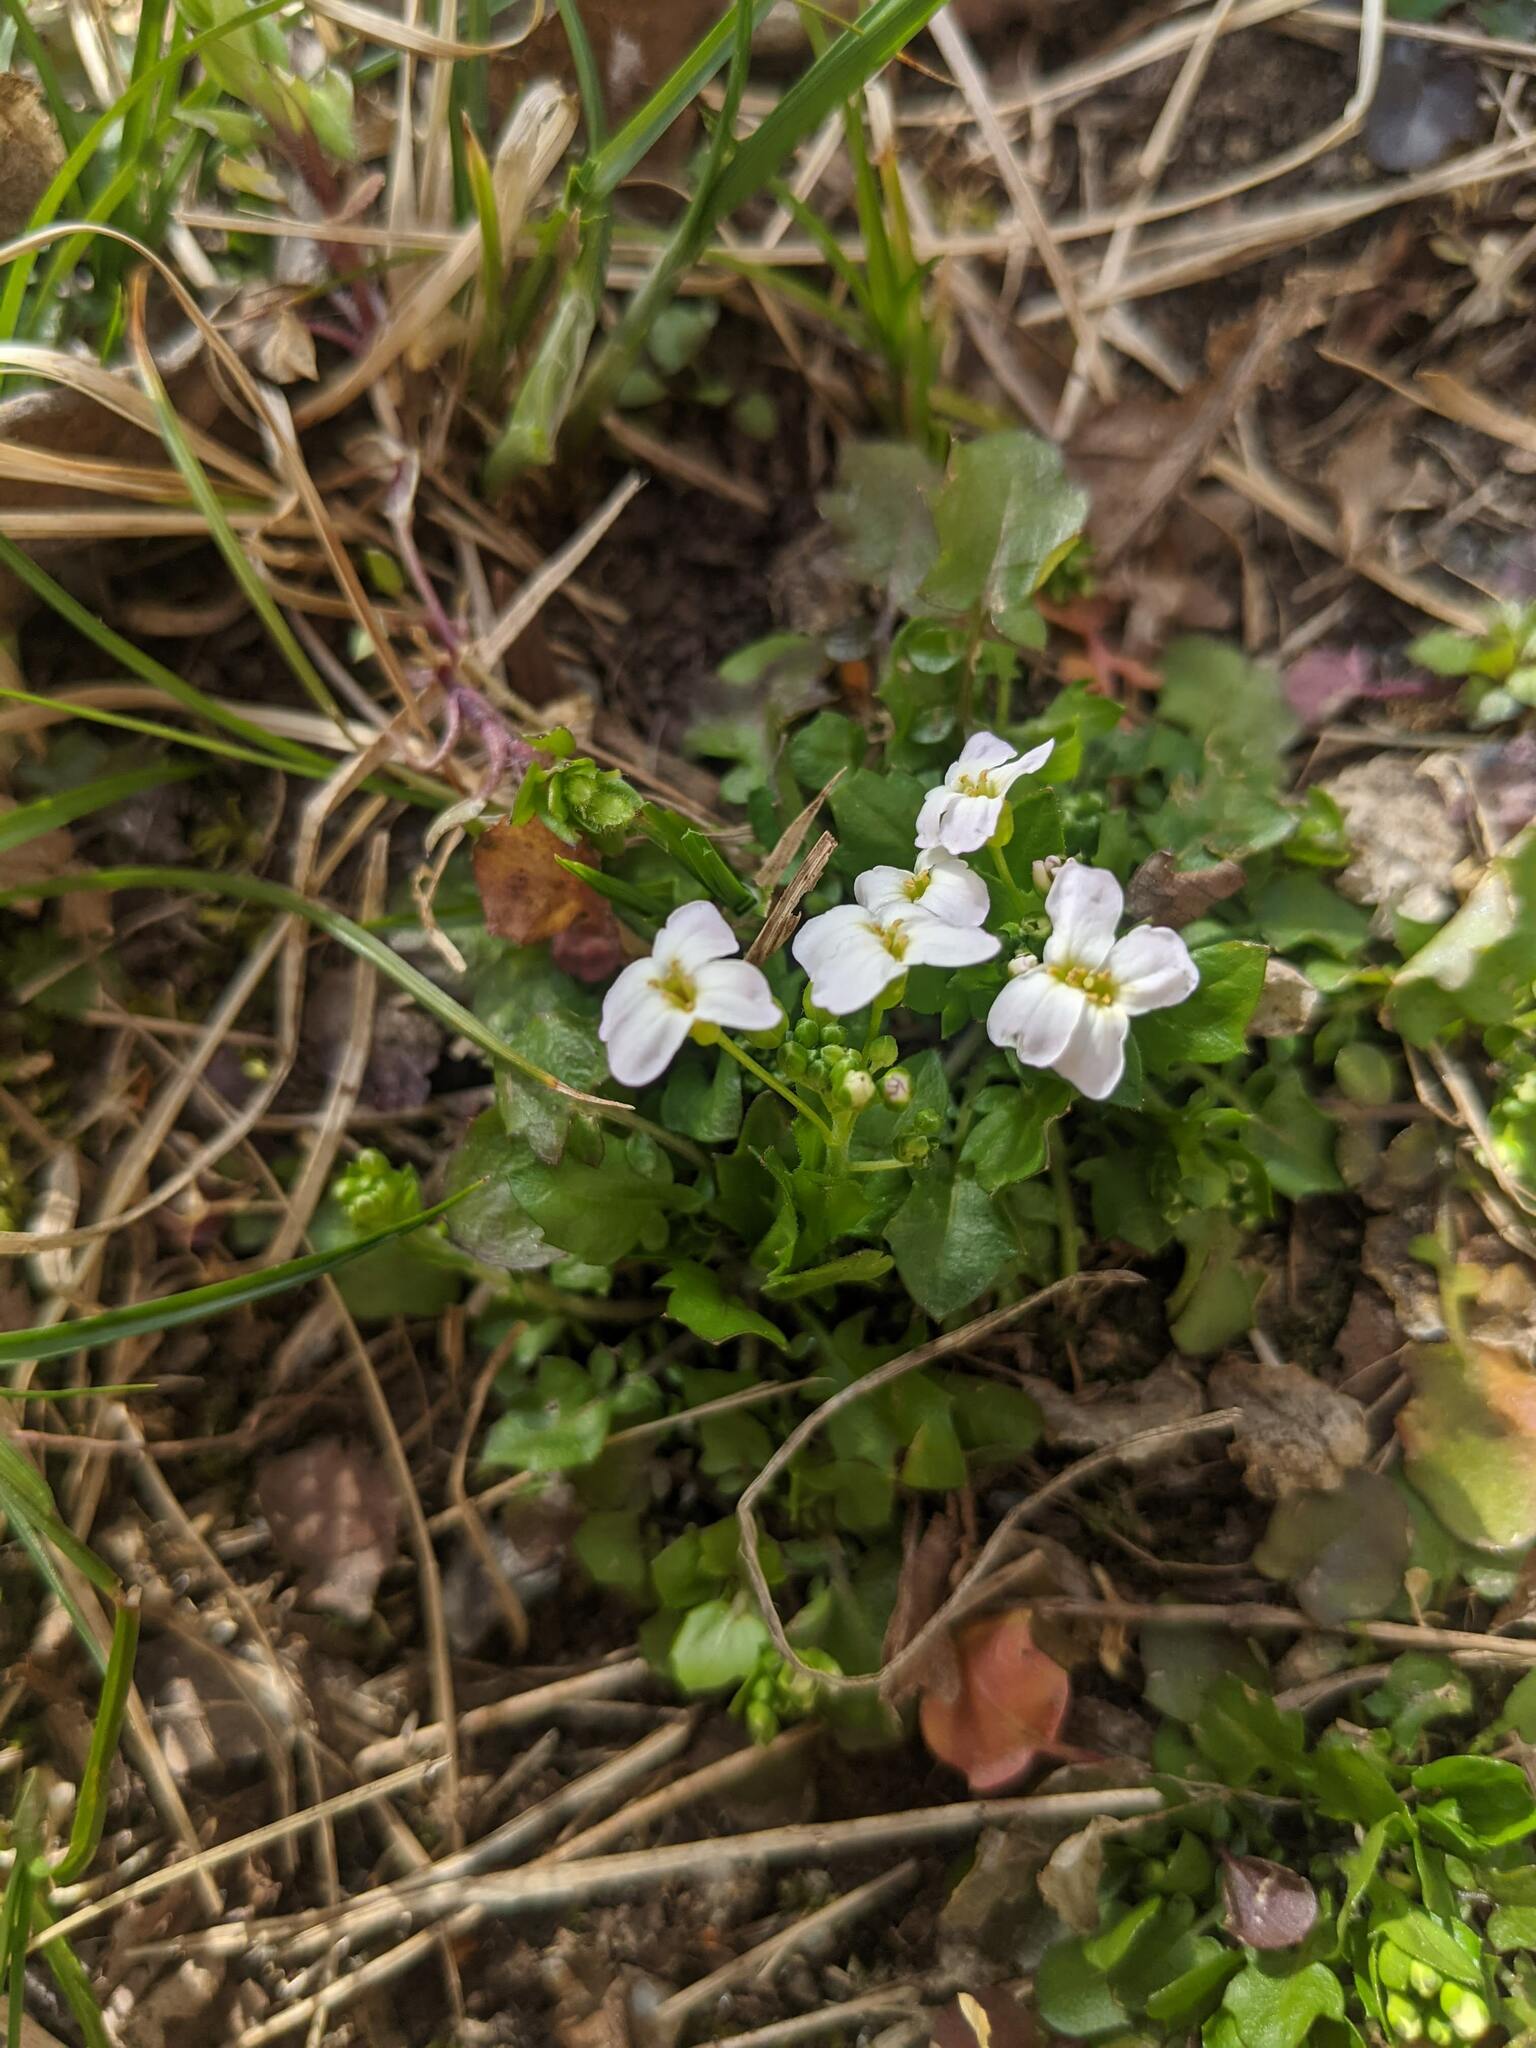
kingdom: Plantae
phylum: Tracheophyta
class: Magnoliopsida
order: Brassicales
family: Brassicaceae
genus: Arabidopsis
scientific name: Arabidopsis halleri
